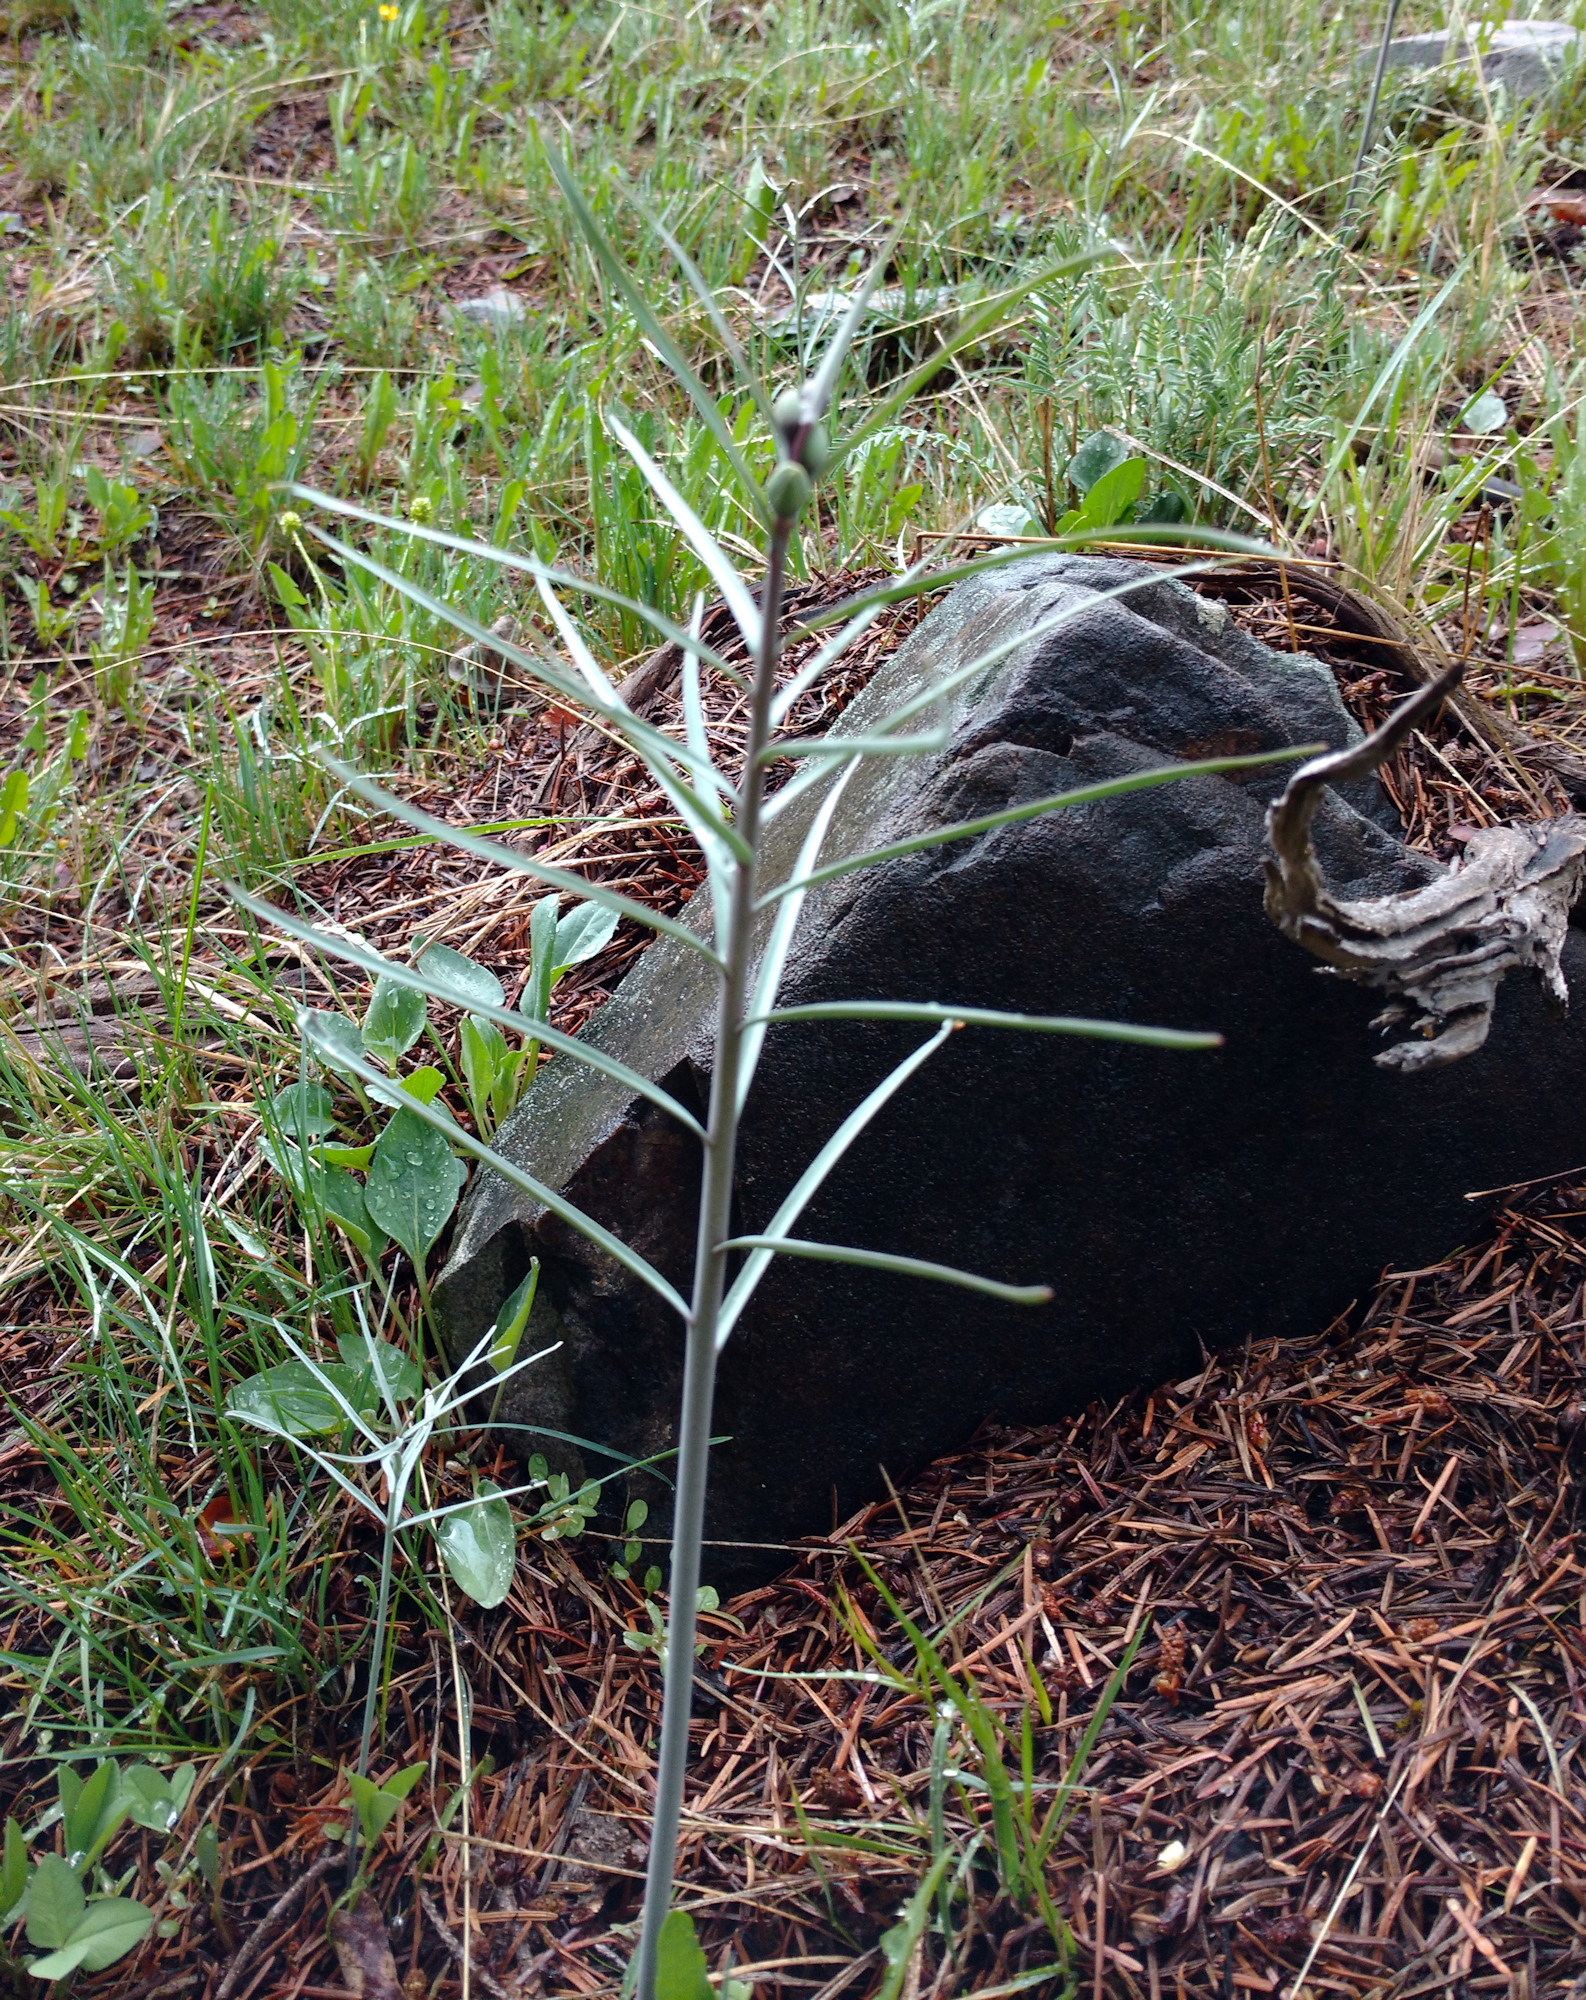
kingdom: Plantae
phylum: Tracheophyta
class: Liliopsida
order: Liliales
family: Liliaceae
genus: Fritillaria
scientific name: Fritillaria atropurpurea
